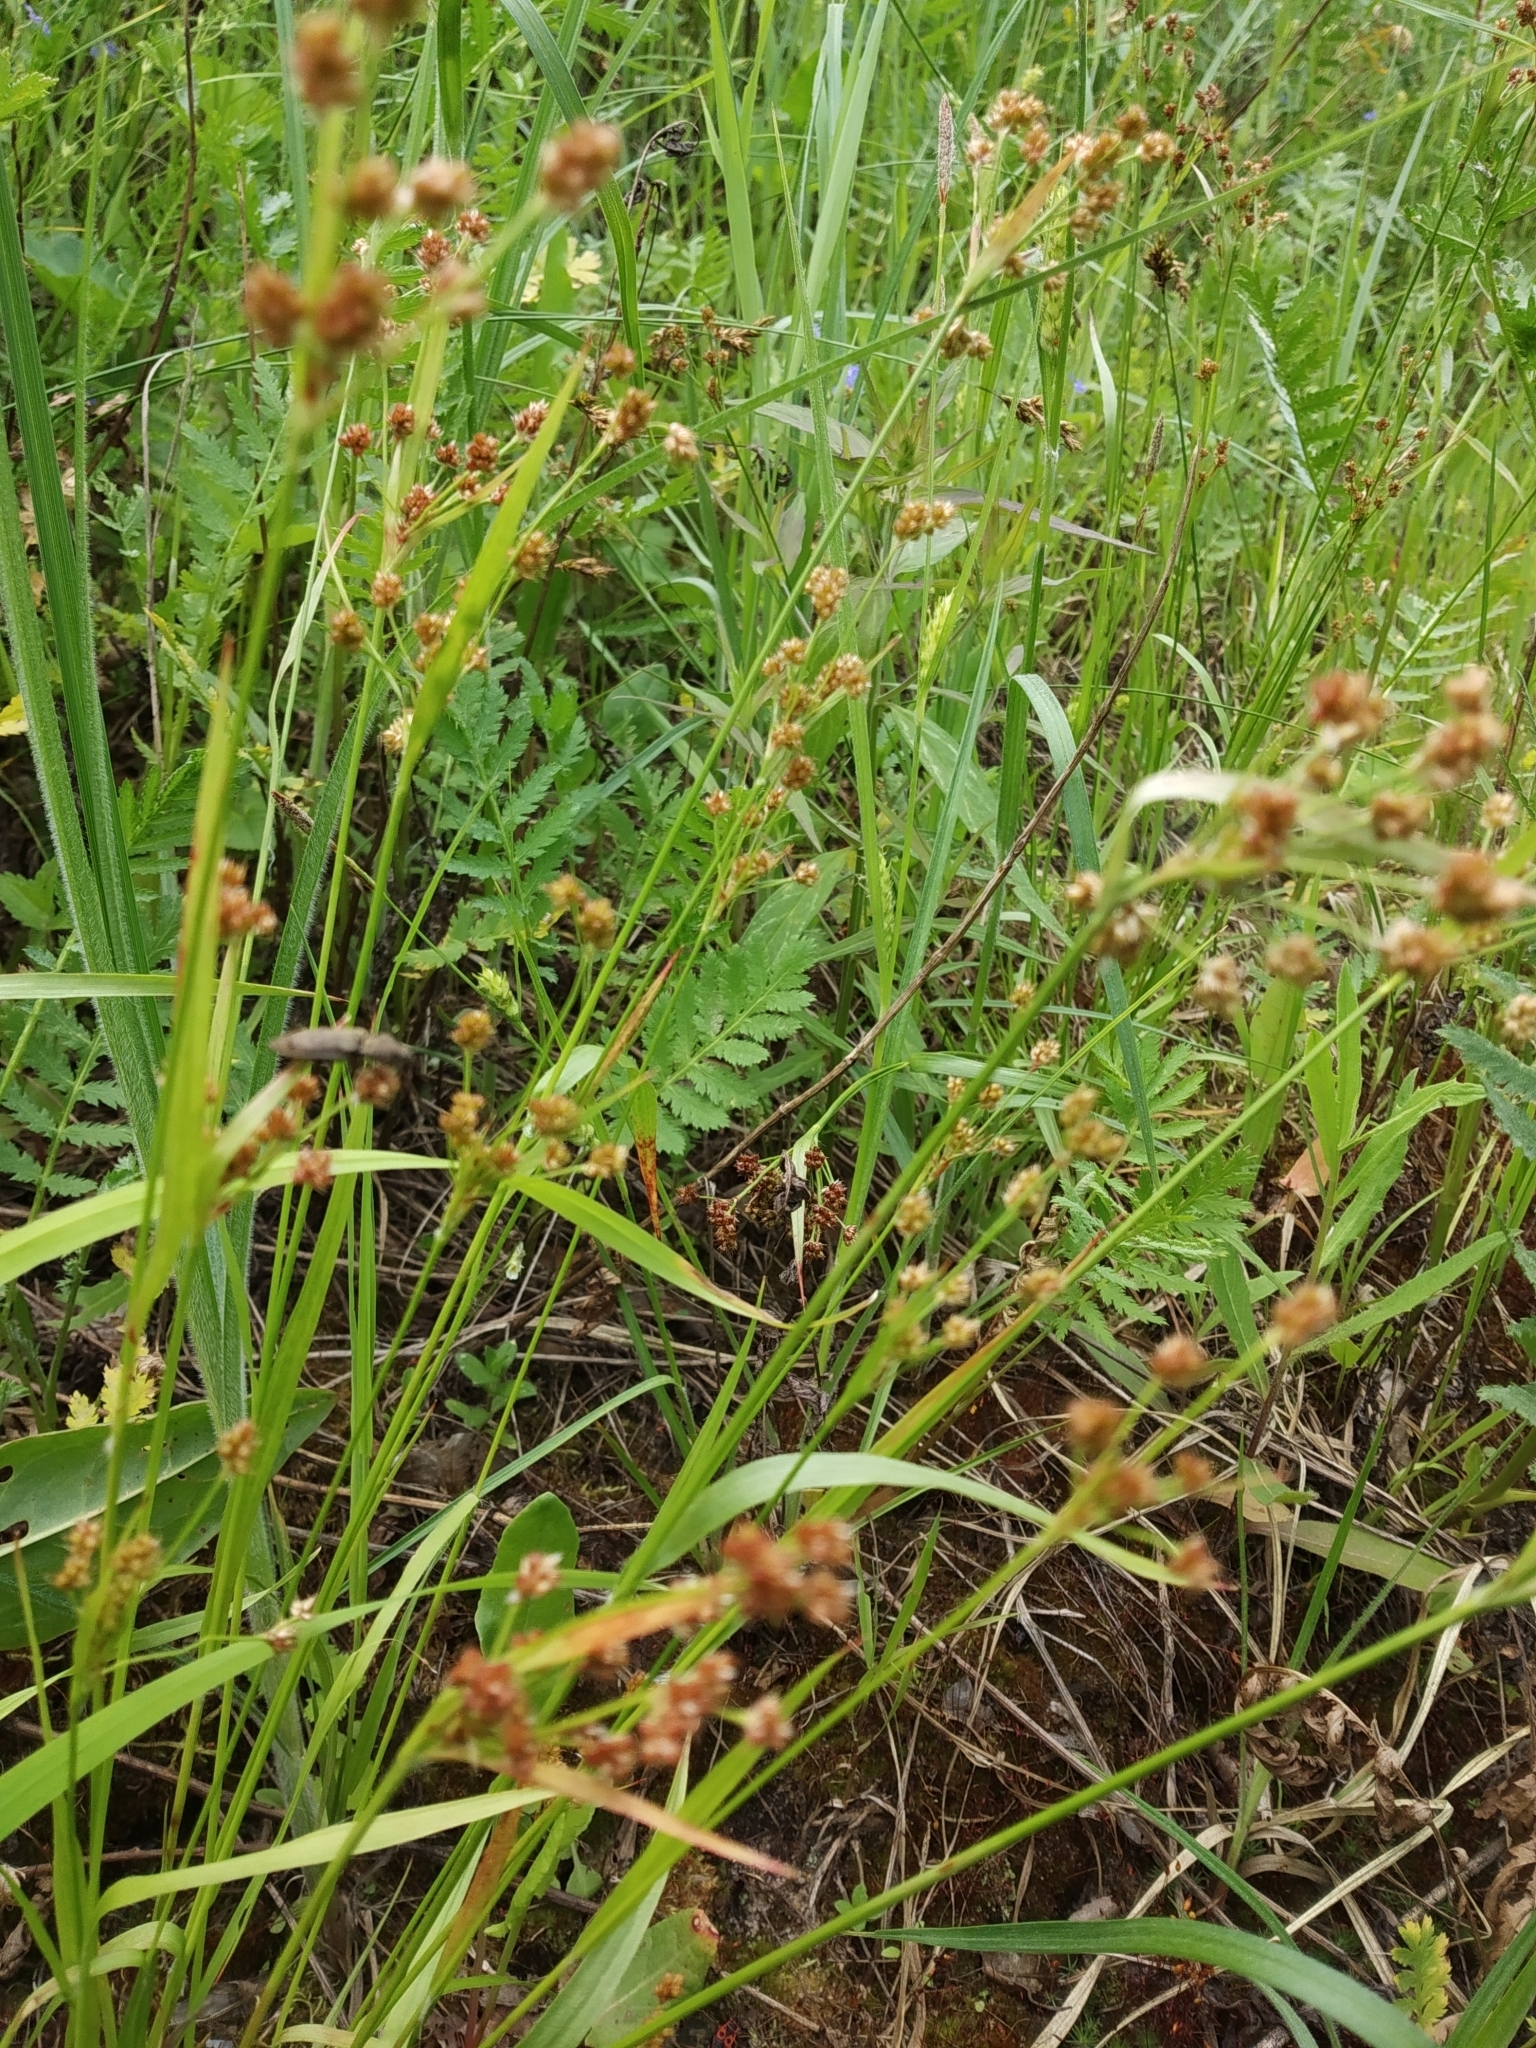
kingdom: Plantae
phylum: Tracheophyta
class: Liliopsida
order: Poales
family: Juncaceae
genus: Luzula
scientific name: Luzula pallescens
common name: Fen wood-rush
